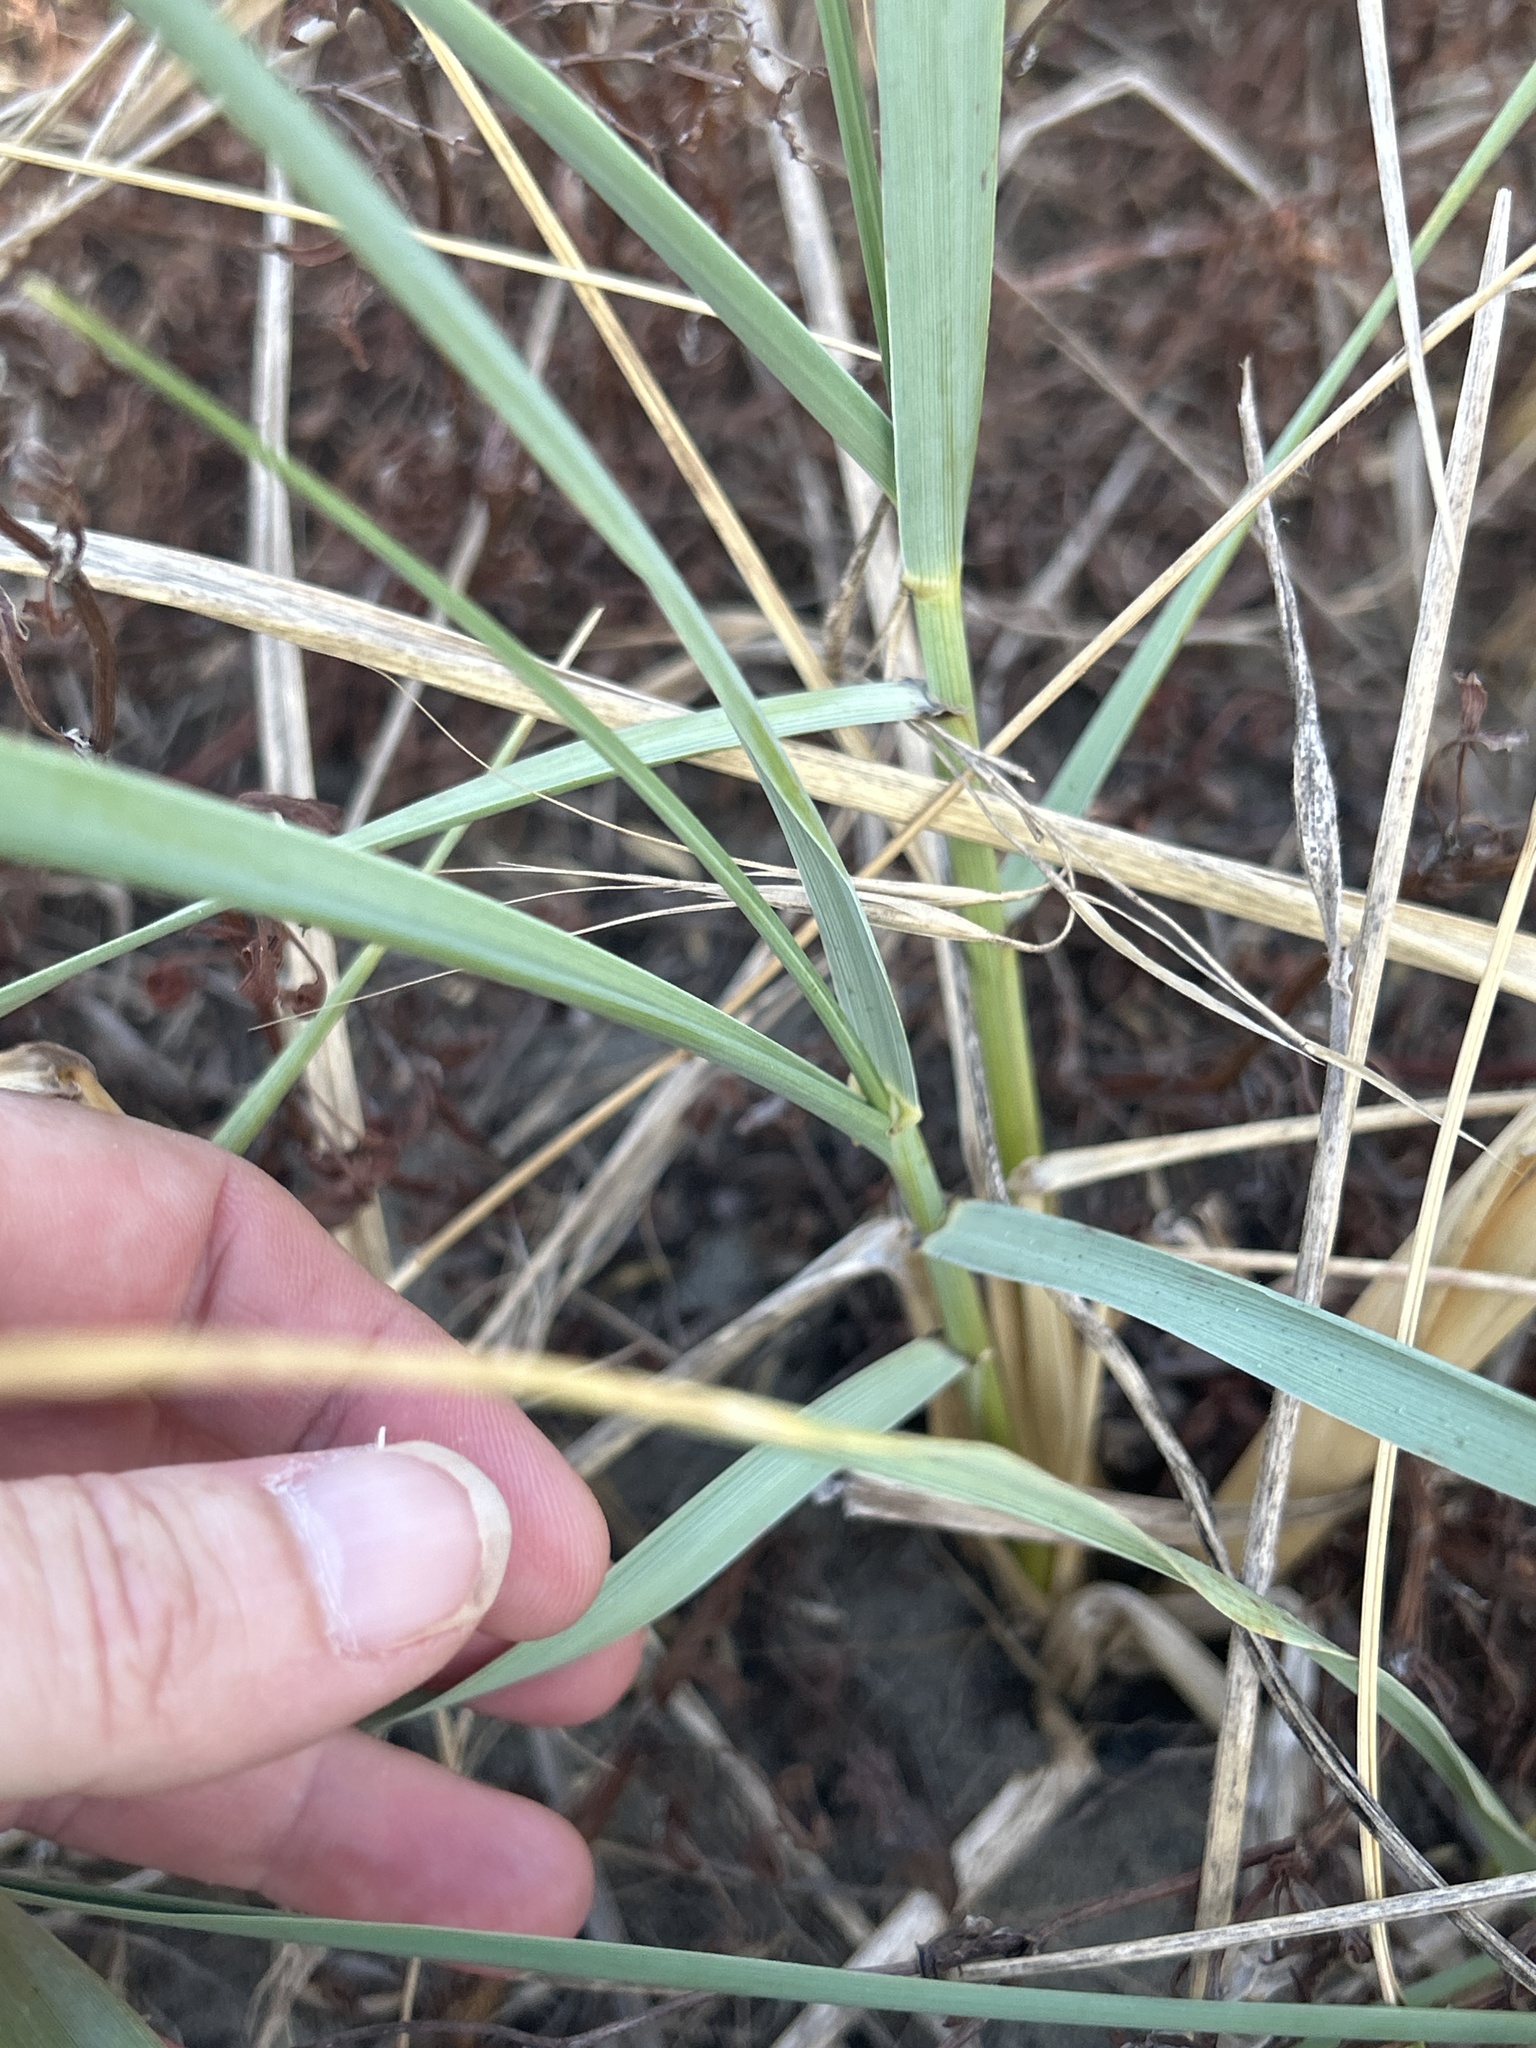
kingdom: Plantae
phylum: Tracheophyta
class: Liliopsida
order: Poales
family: Poaceae
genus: Leymus
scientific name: Leymus racemosus
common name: Mammoth wildrye
